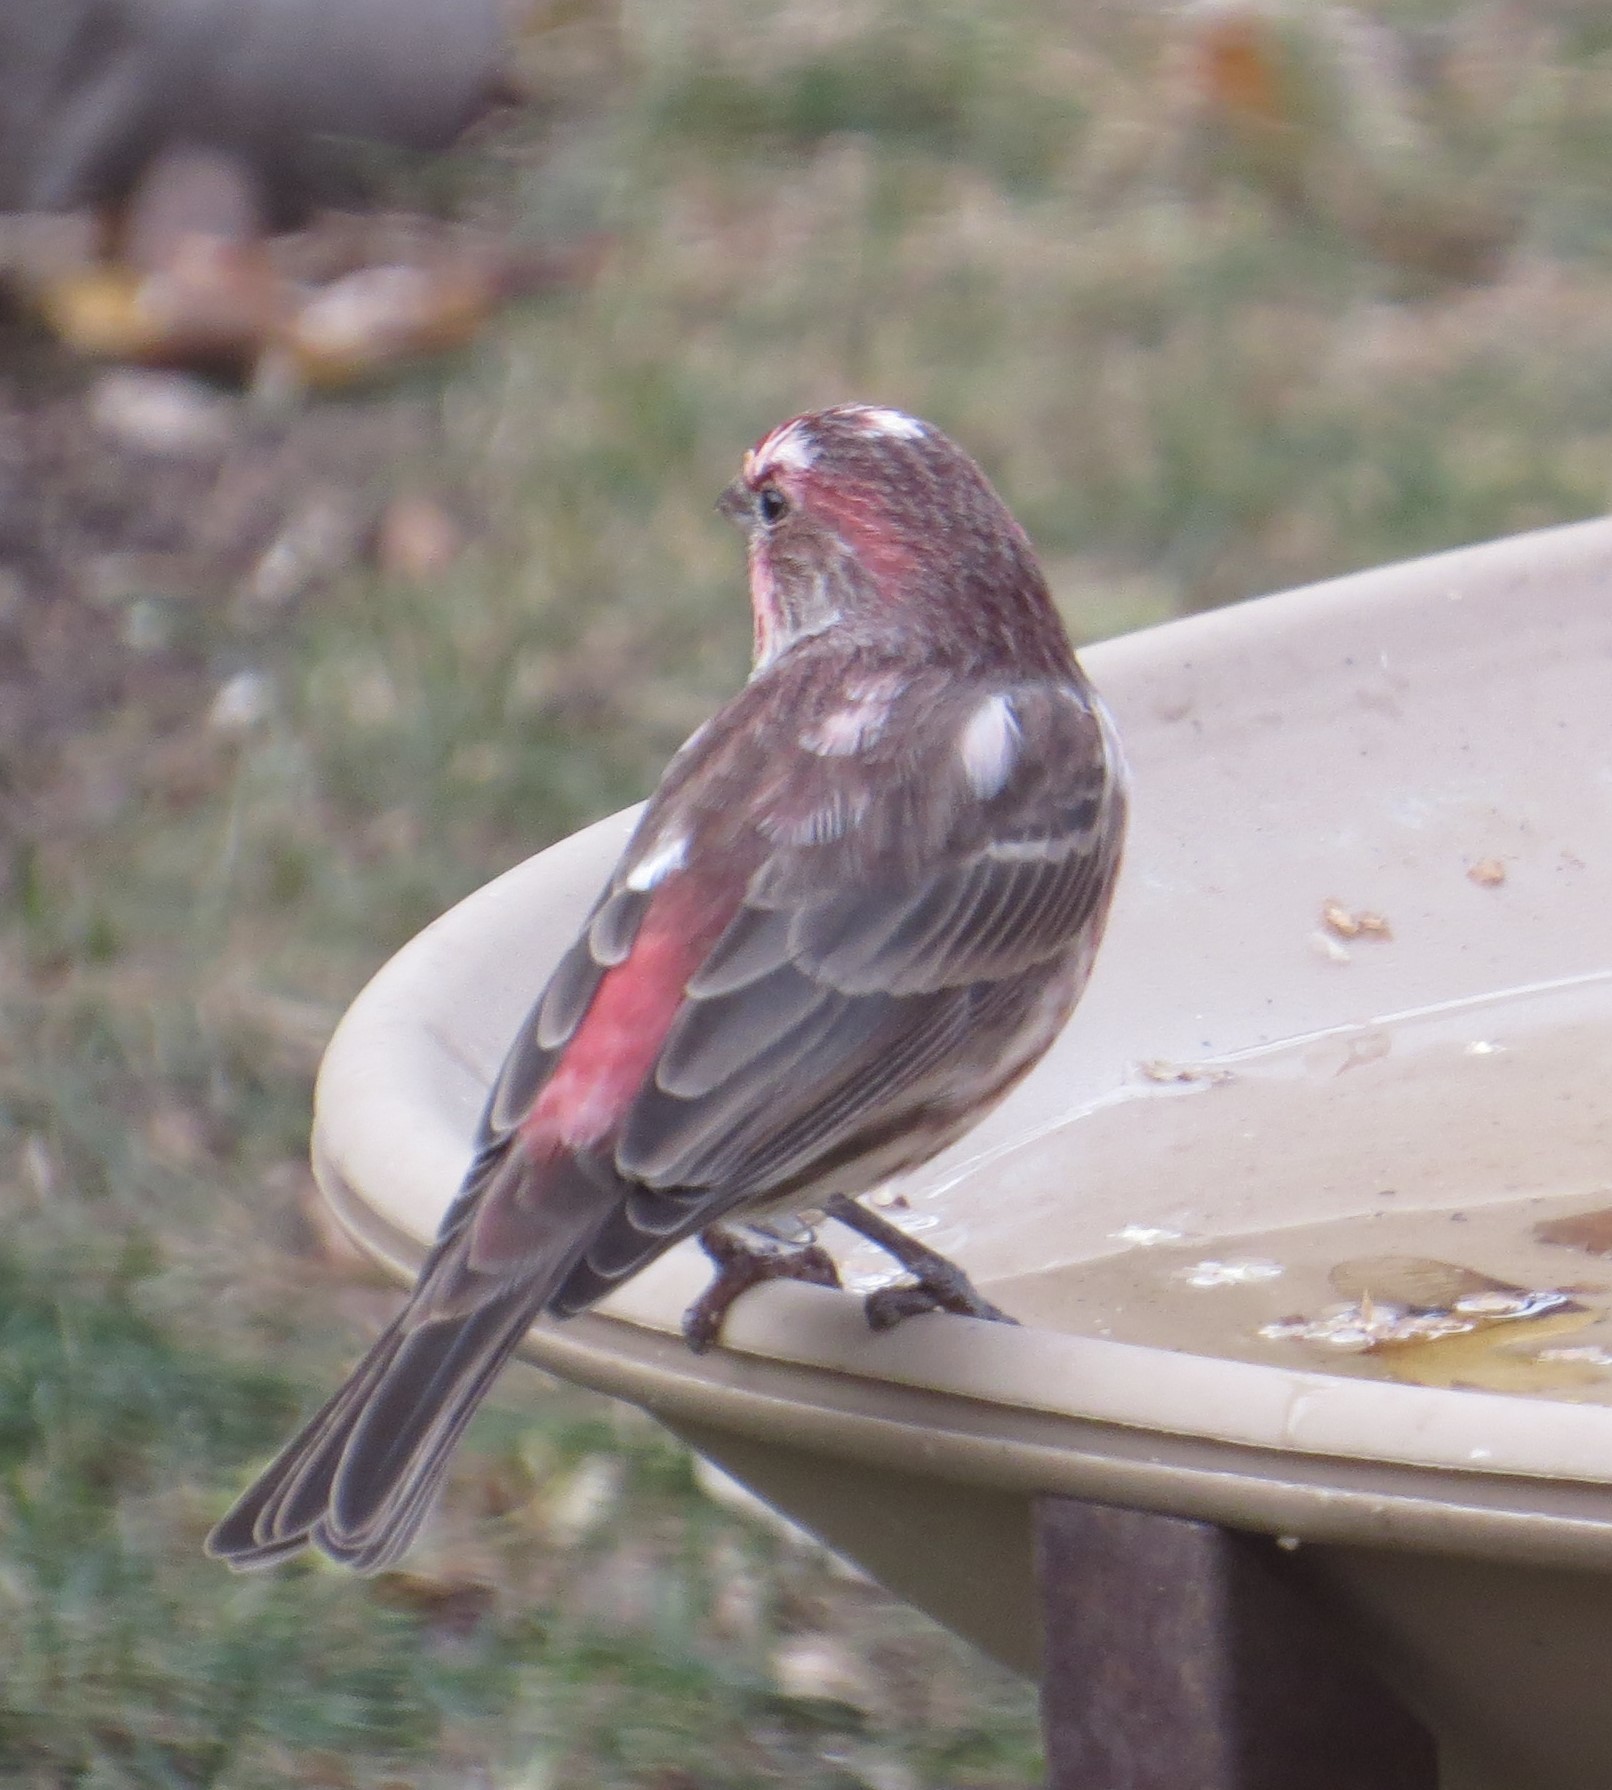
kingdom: Animalia
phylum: Chordata
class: Aves
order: Passeriformes
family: Fringillidae
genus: Haemorhous
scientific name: Haemorhous mexicanus
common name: House finch
